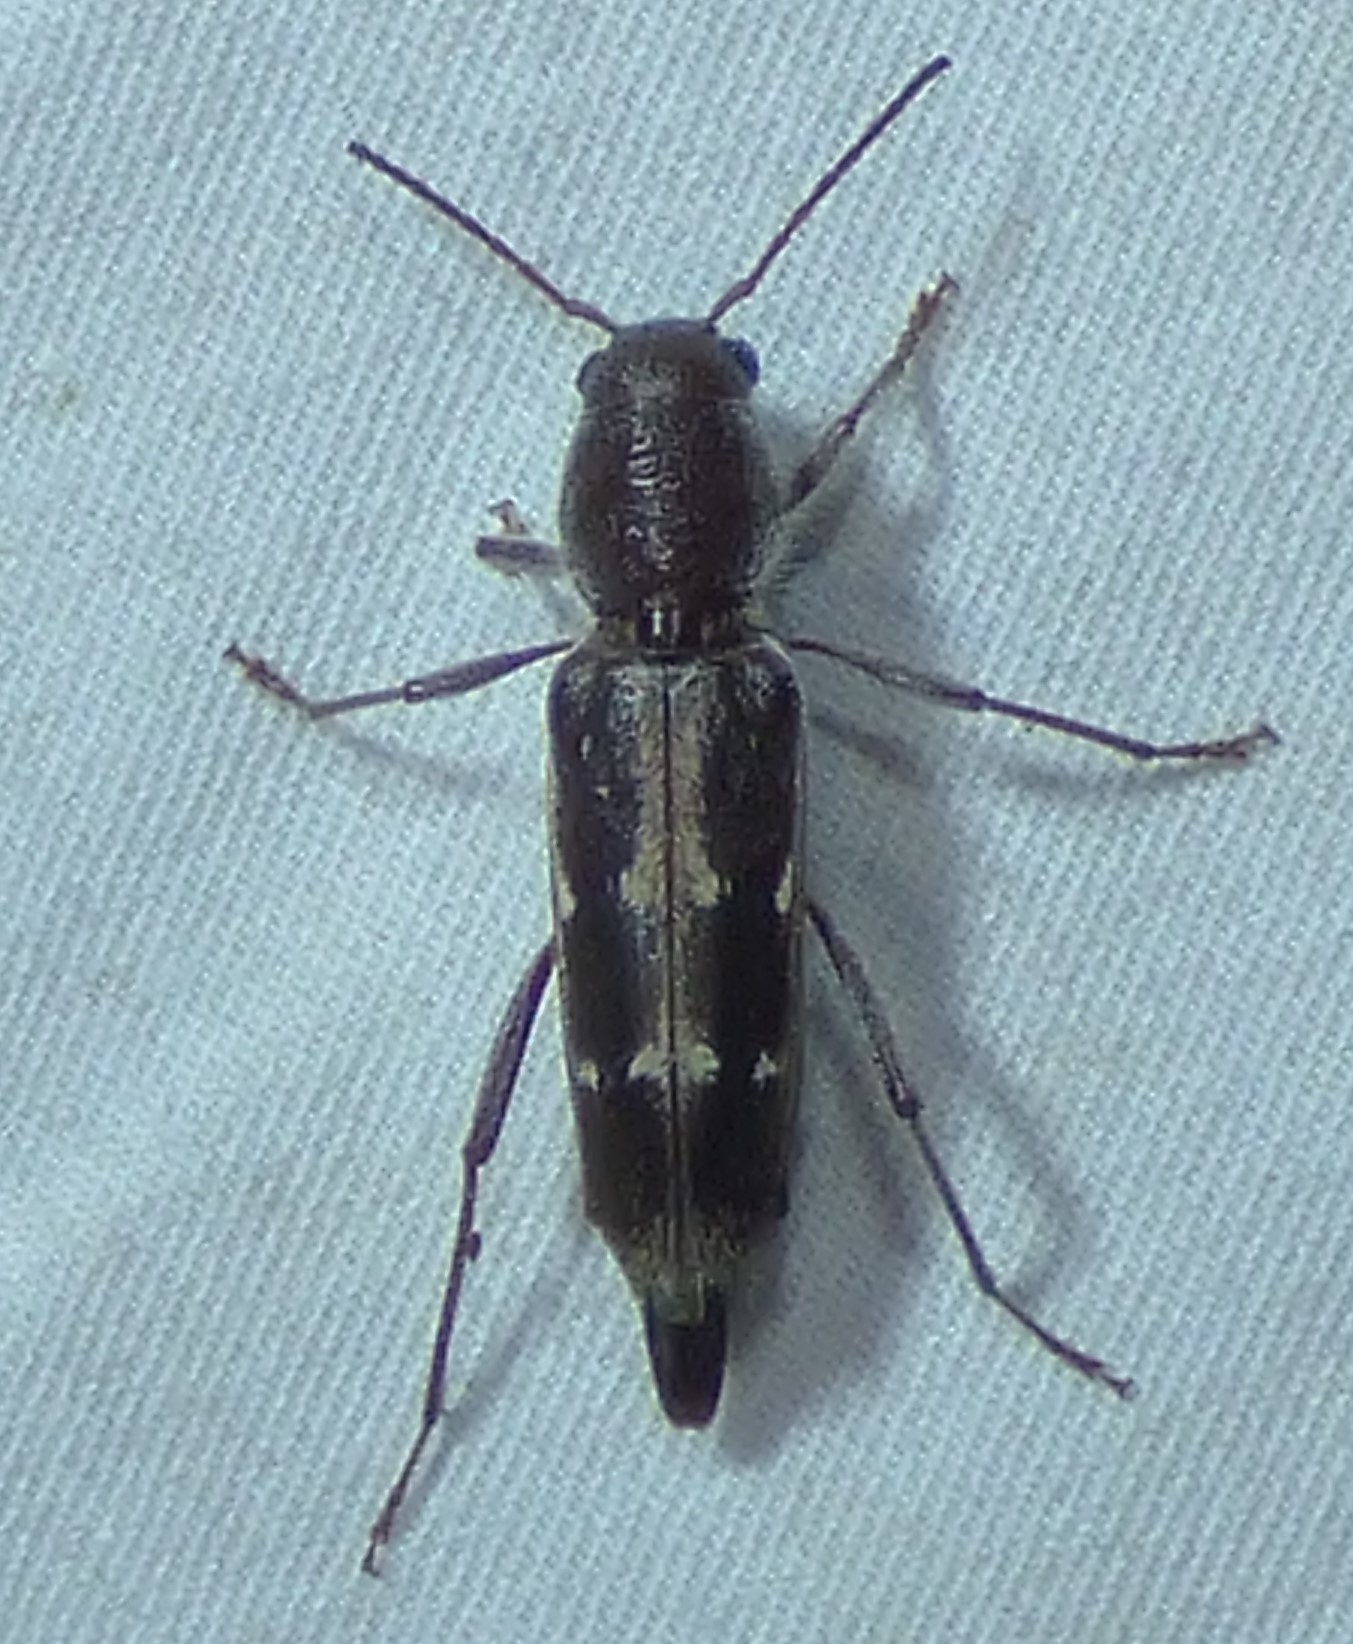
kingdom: Animalia
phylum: Arthropoda
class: Insecta
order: Coleoptera
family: Cerambycidae
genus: Xylotrechus
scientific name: Xylotrechus sagittatus
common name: Arrowhead borer
